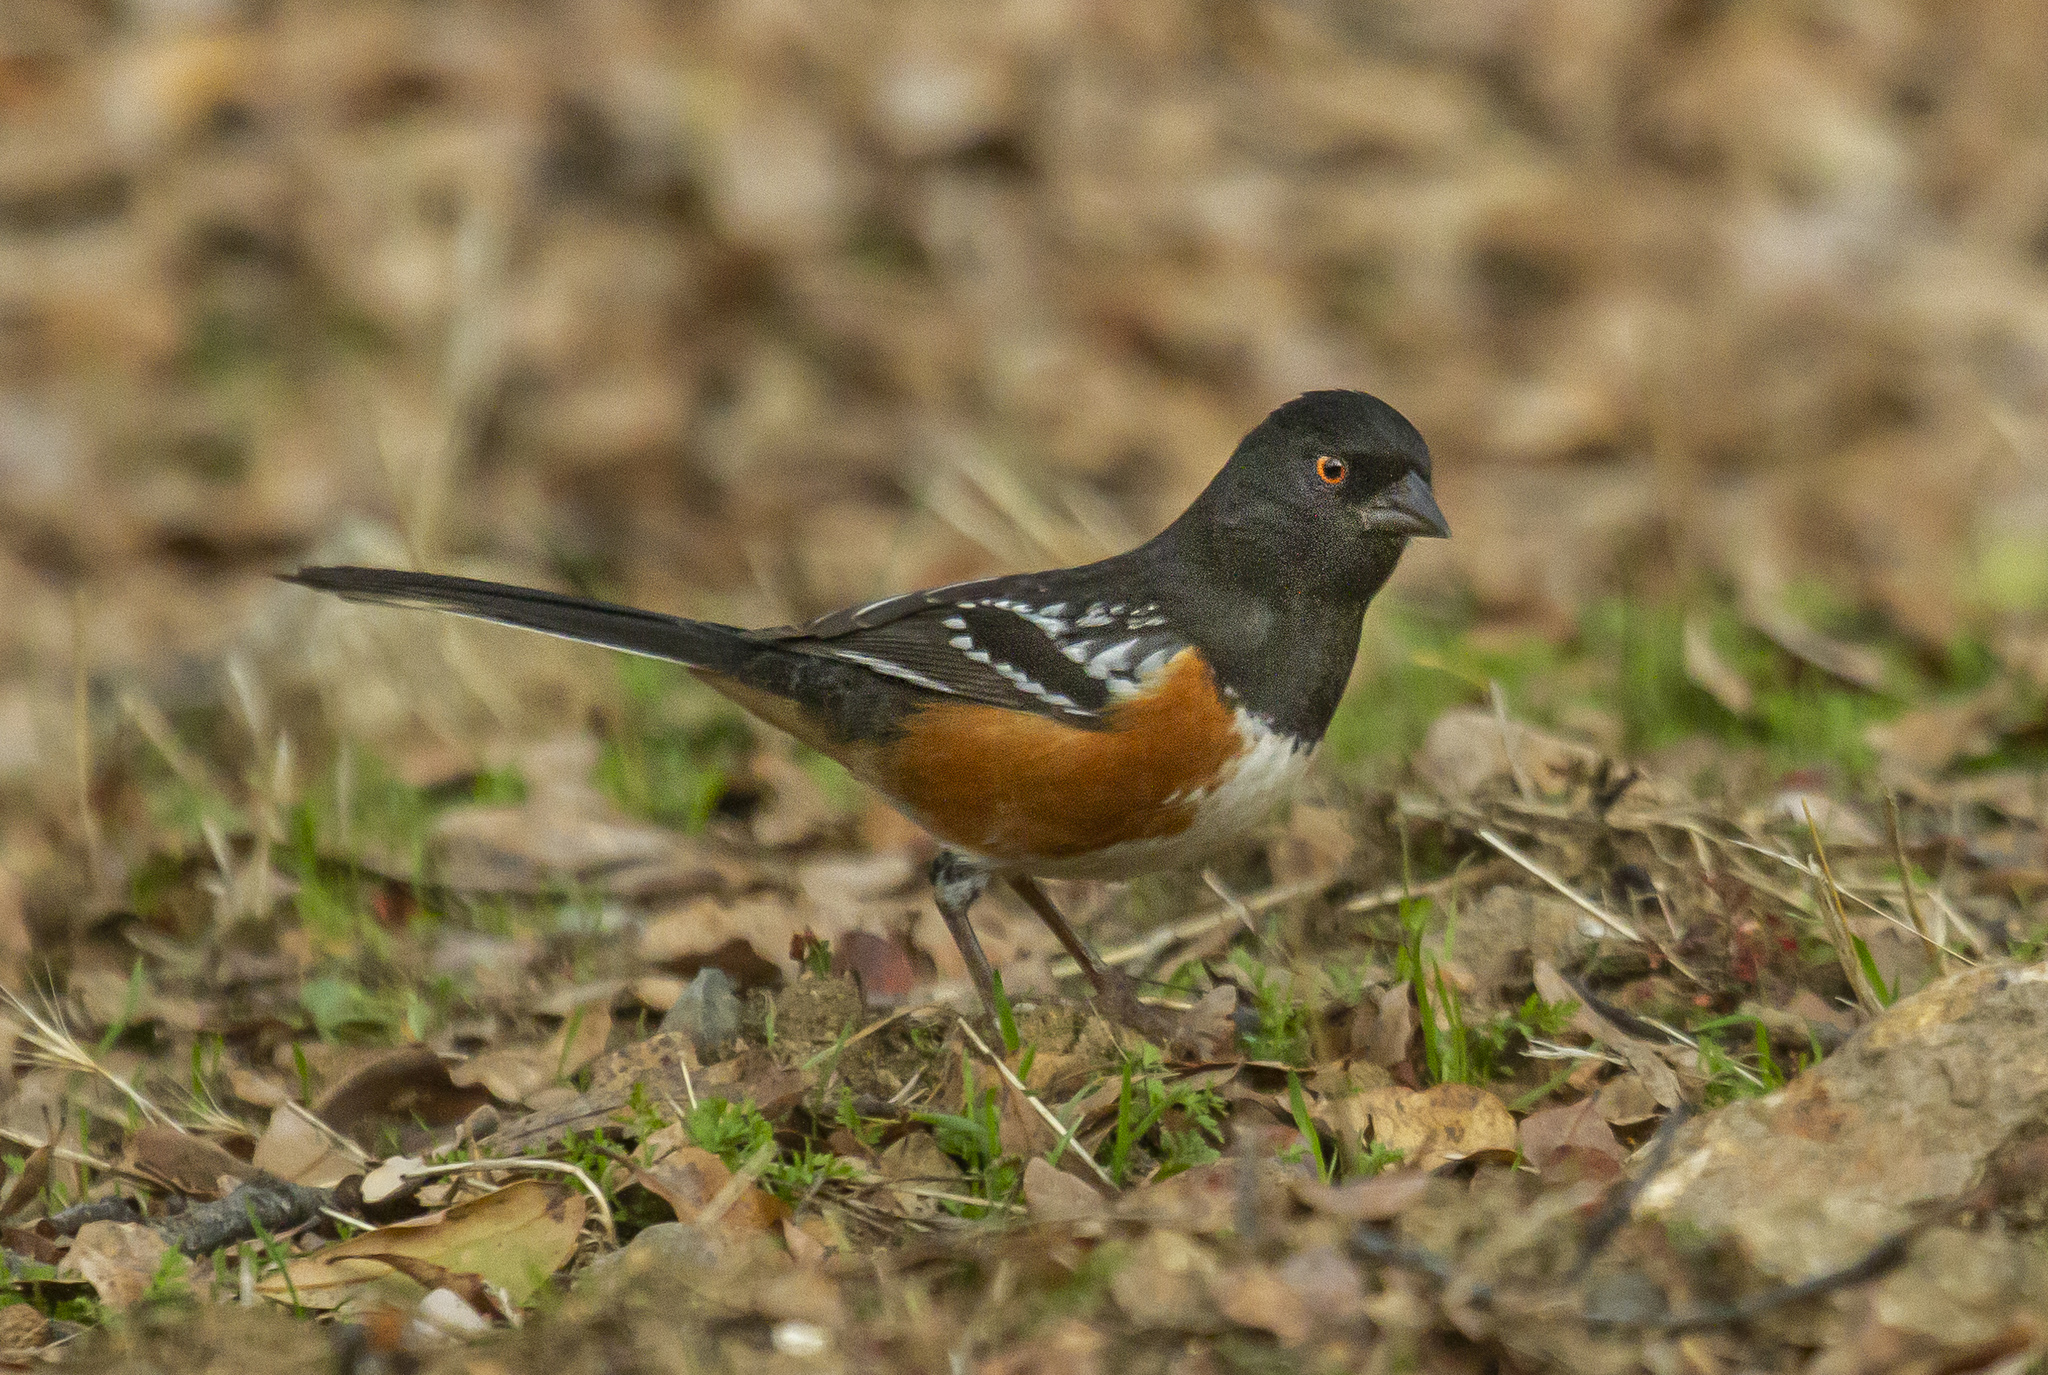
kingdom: Animalia
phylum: Chordata
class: Aves
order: Passeriformes
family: Passerellidae
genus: Pipilo
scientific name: Pipilo maculatus
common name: Spotted towhee
